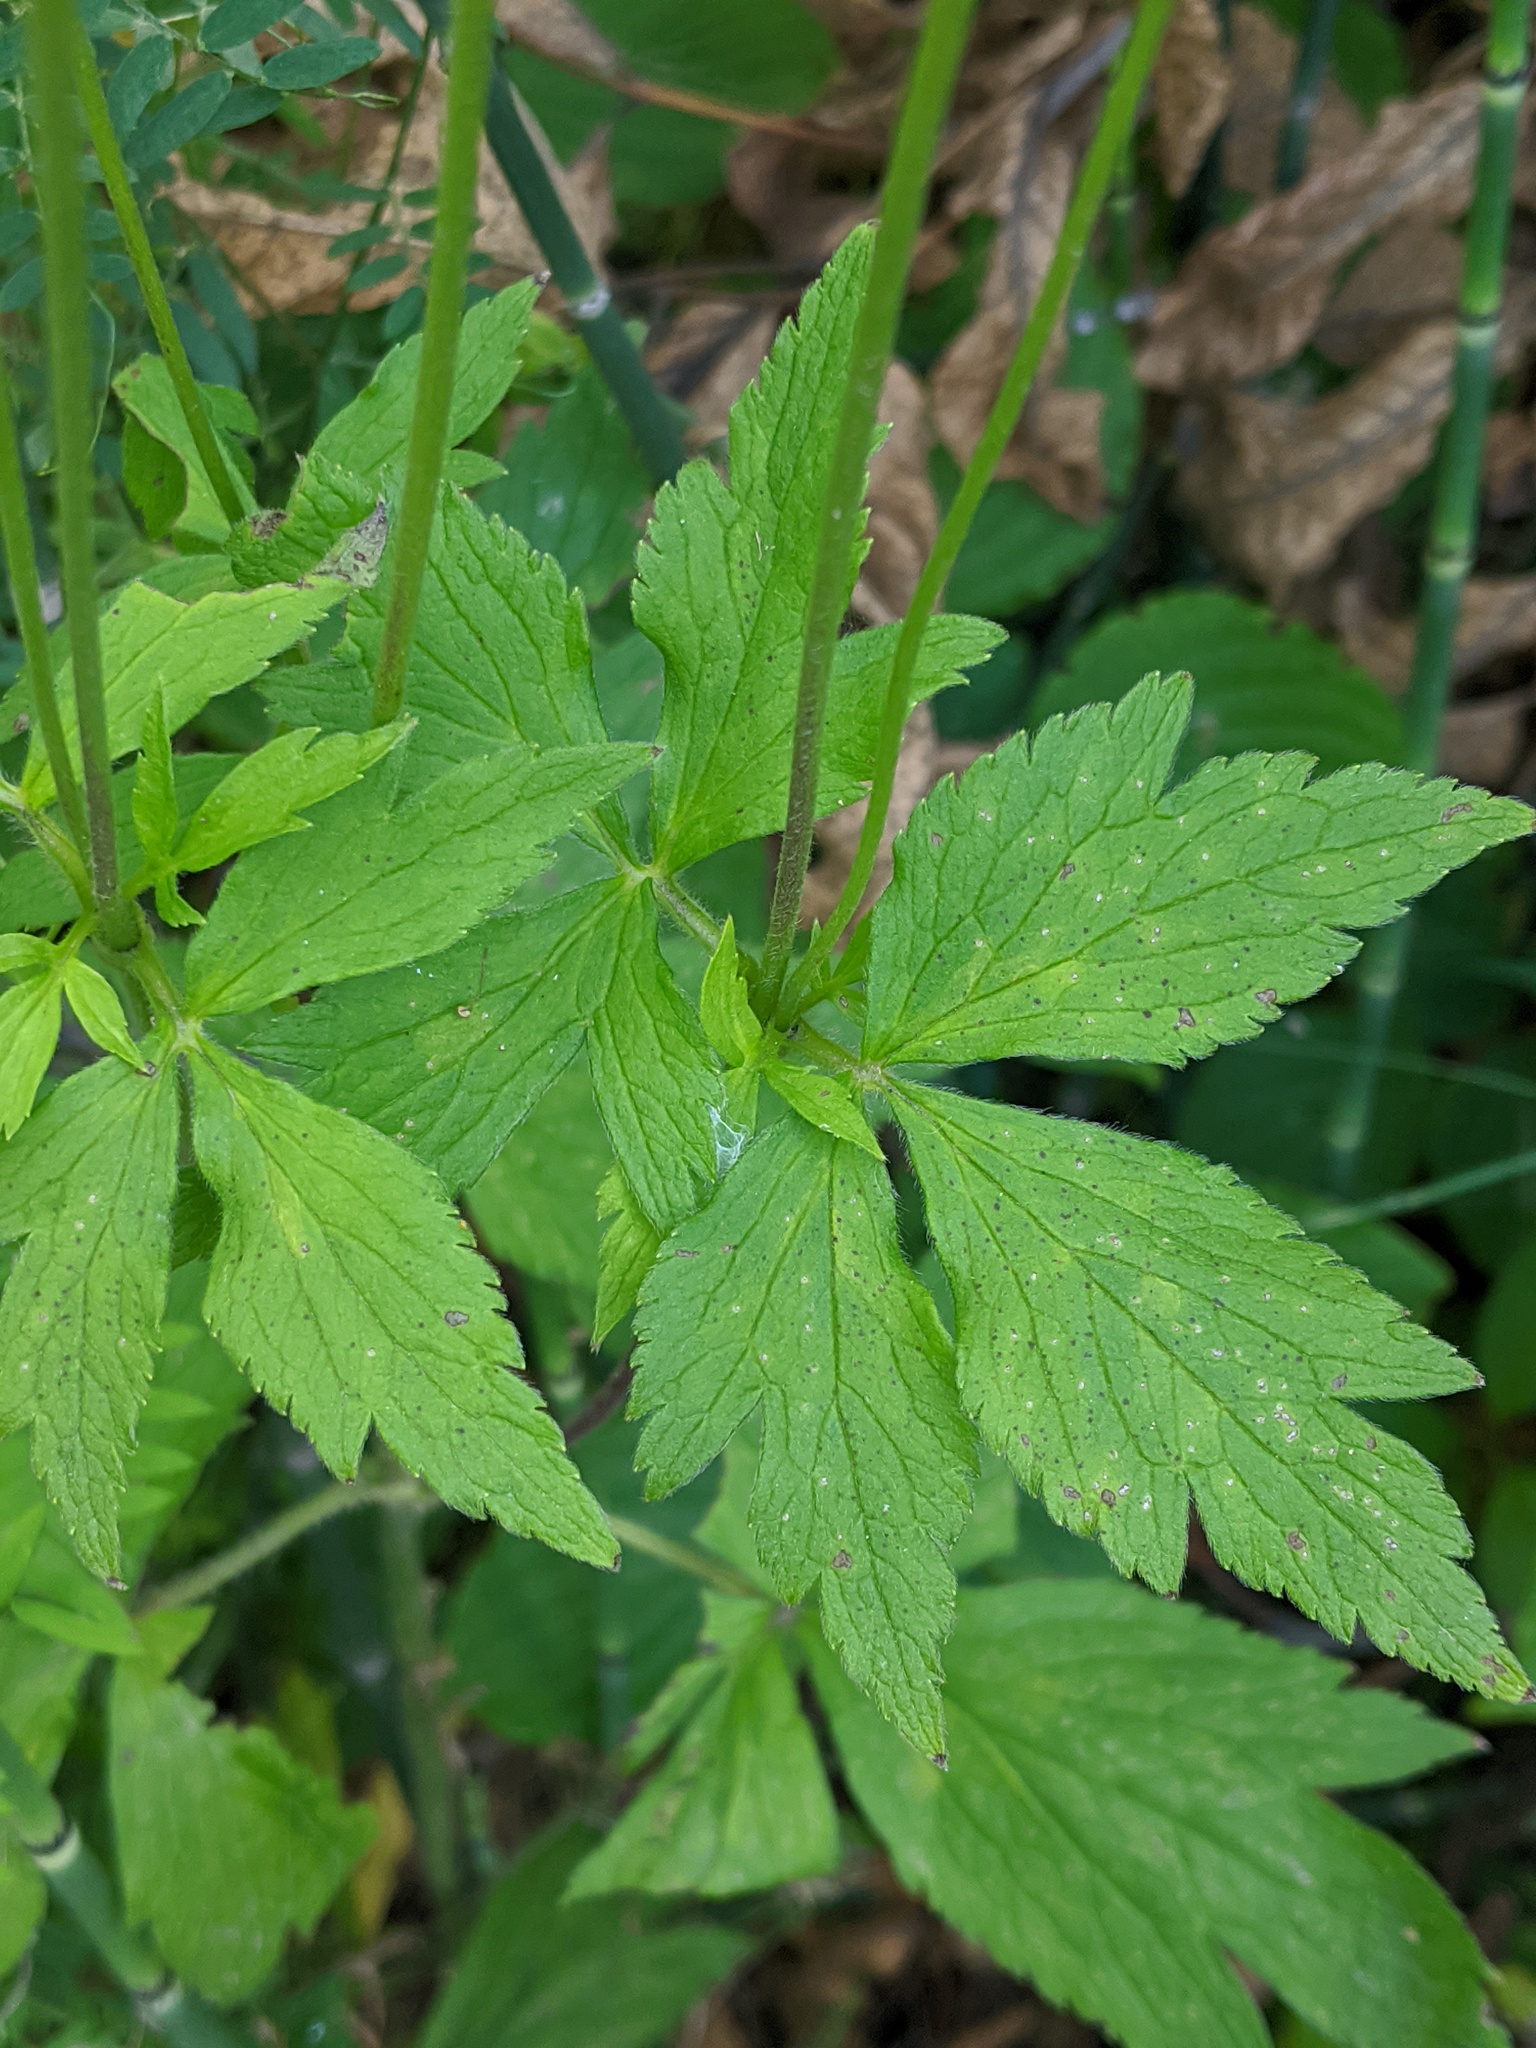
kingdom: Plantae
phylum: Tracheophyta
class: Magnoliopsida
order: Ranunculales
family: Ranunculaceae
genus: Anemone
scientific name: Anemone virginiana
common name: Tall anemone
